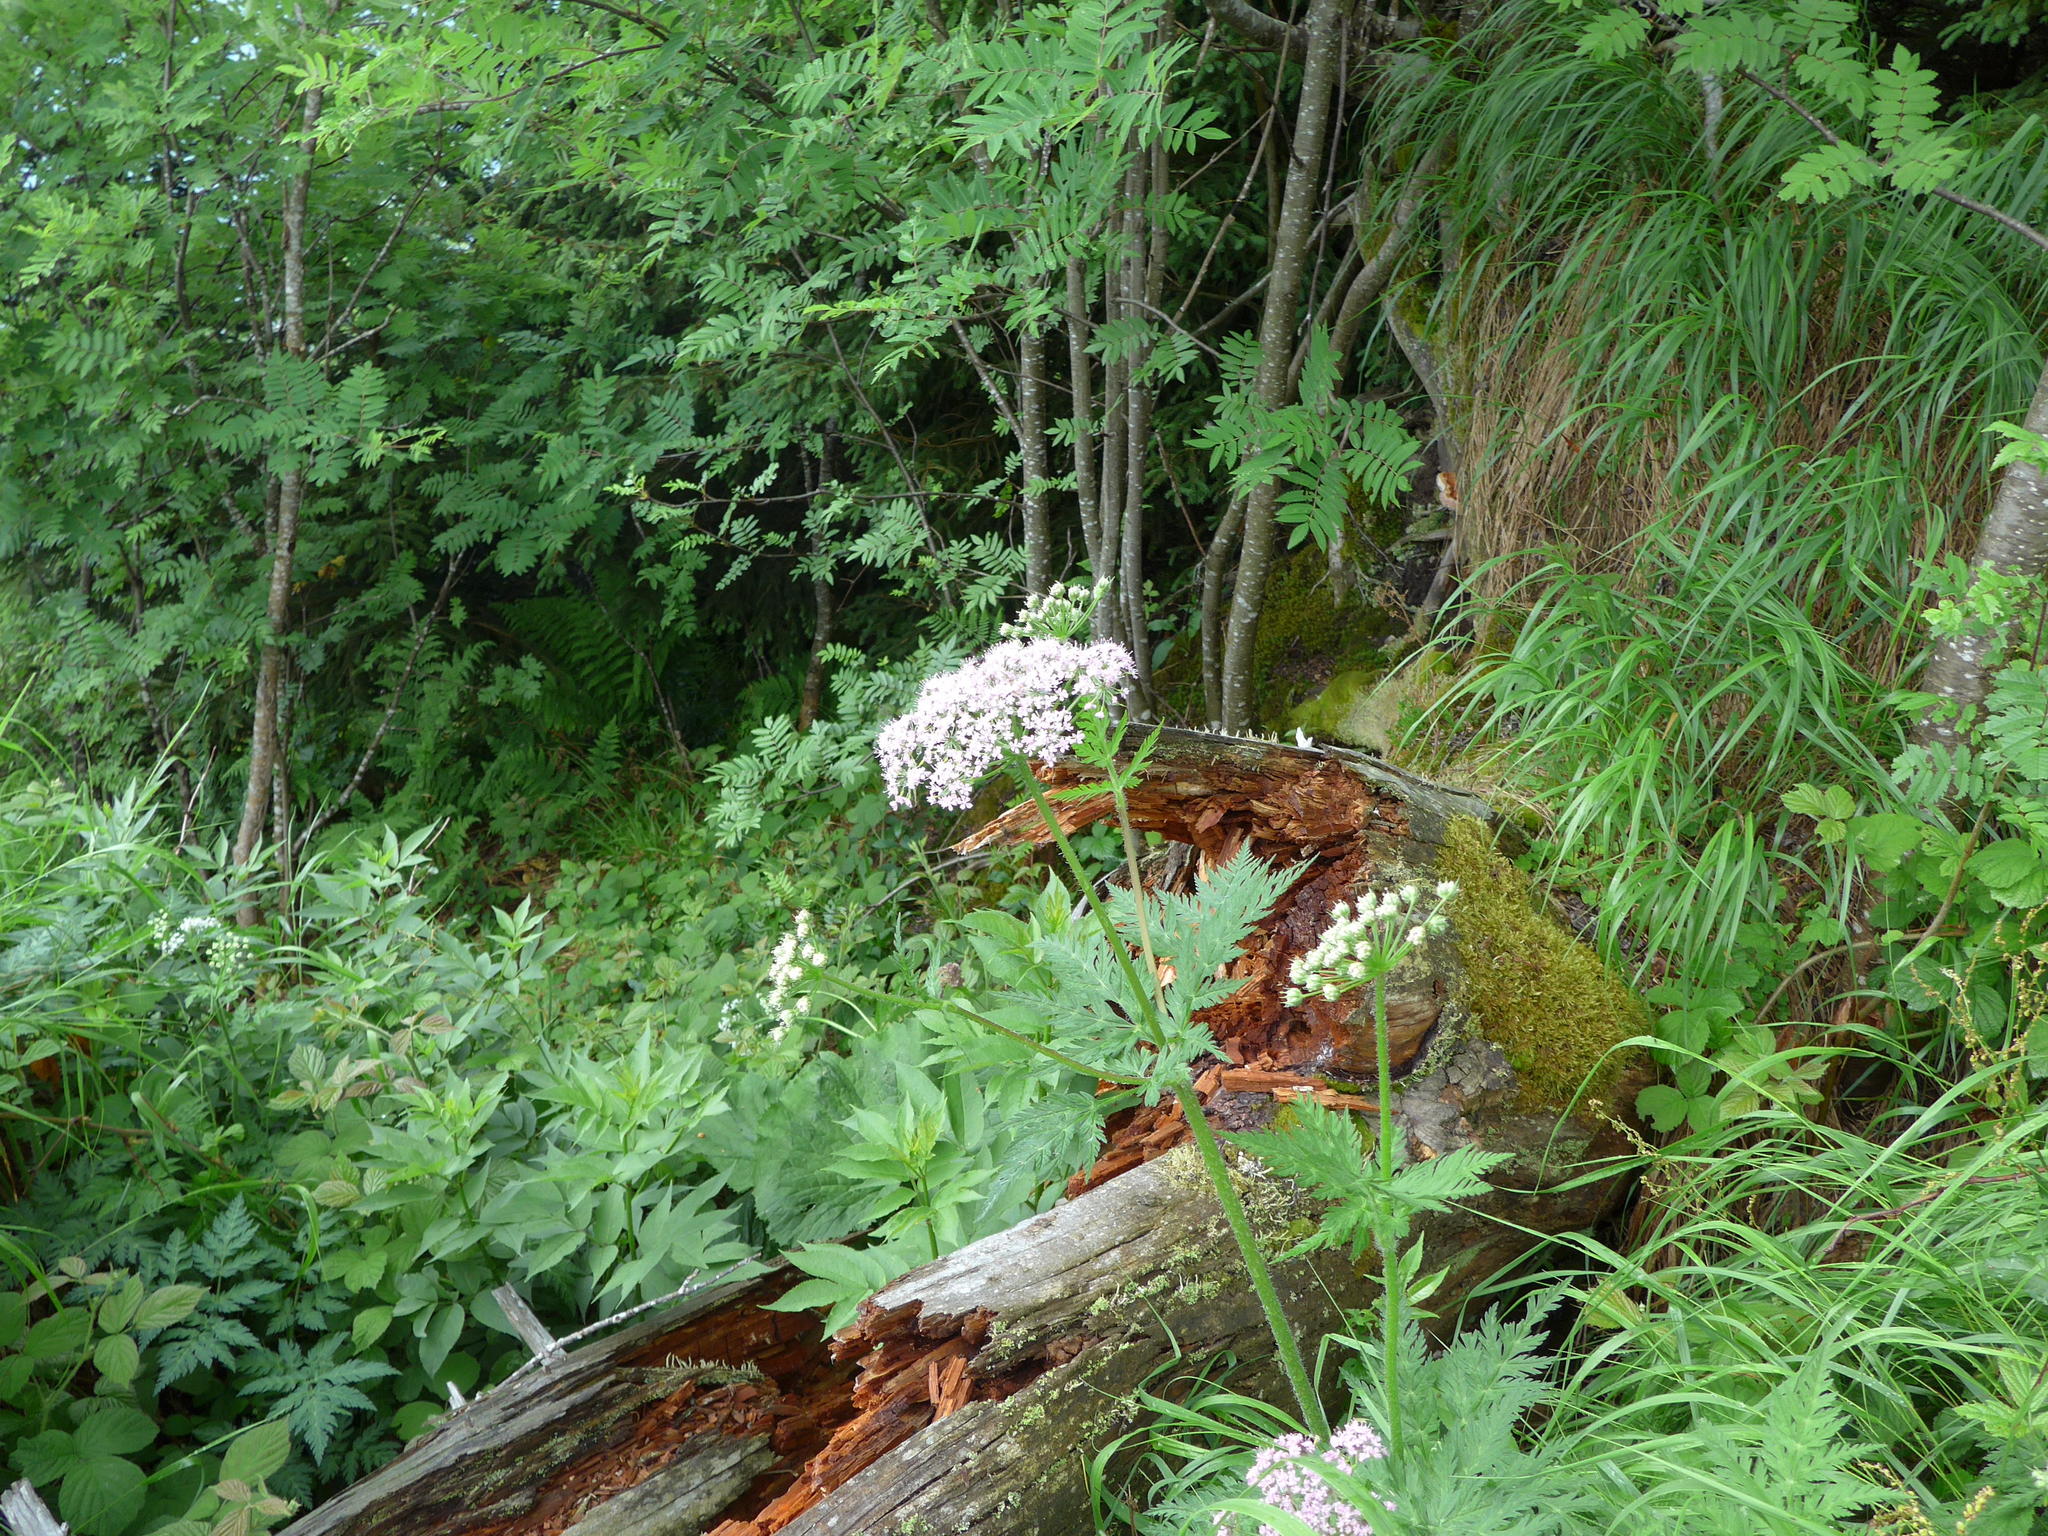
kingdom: Plantae
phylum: Tracheophyta
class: Magnoliopsida
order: Apiales
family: Apiaceae
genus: Chaerophyllum
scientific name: Chaerophyllum hirsutum
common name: Hairy chervil
